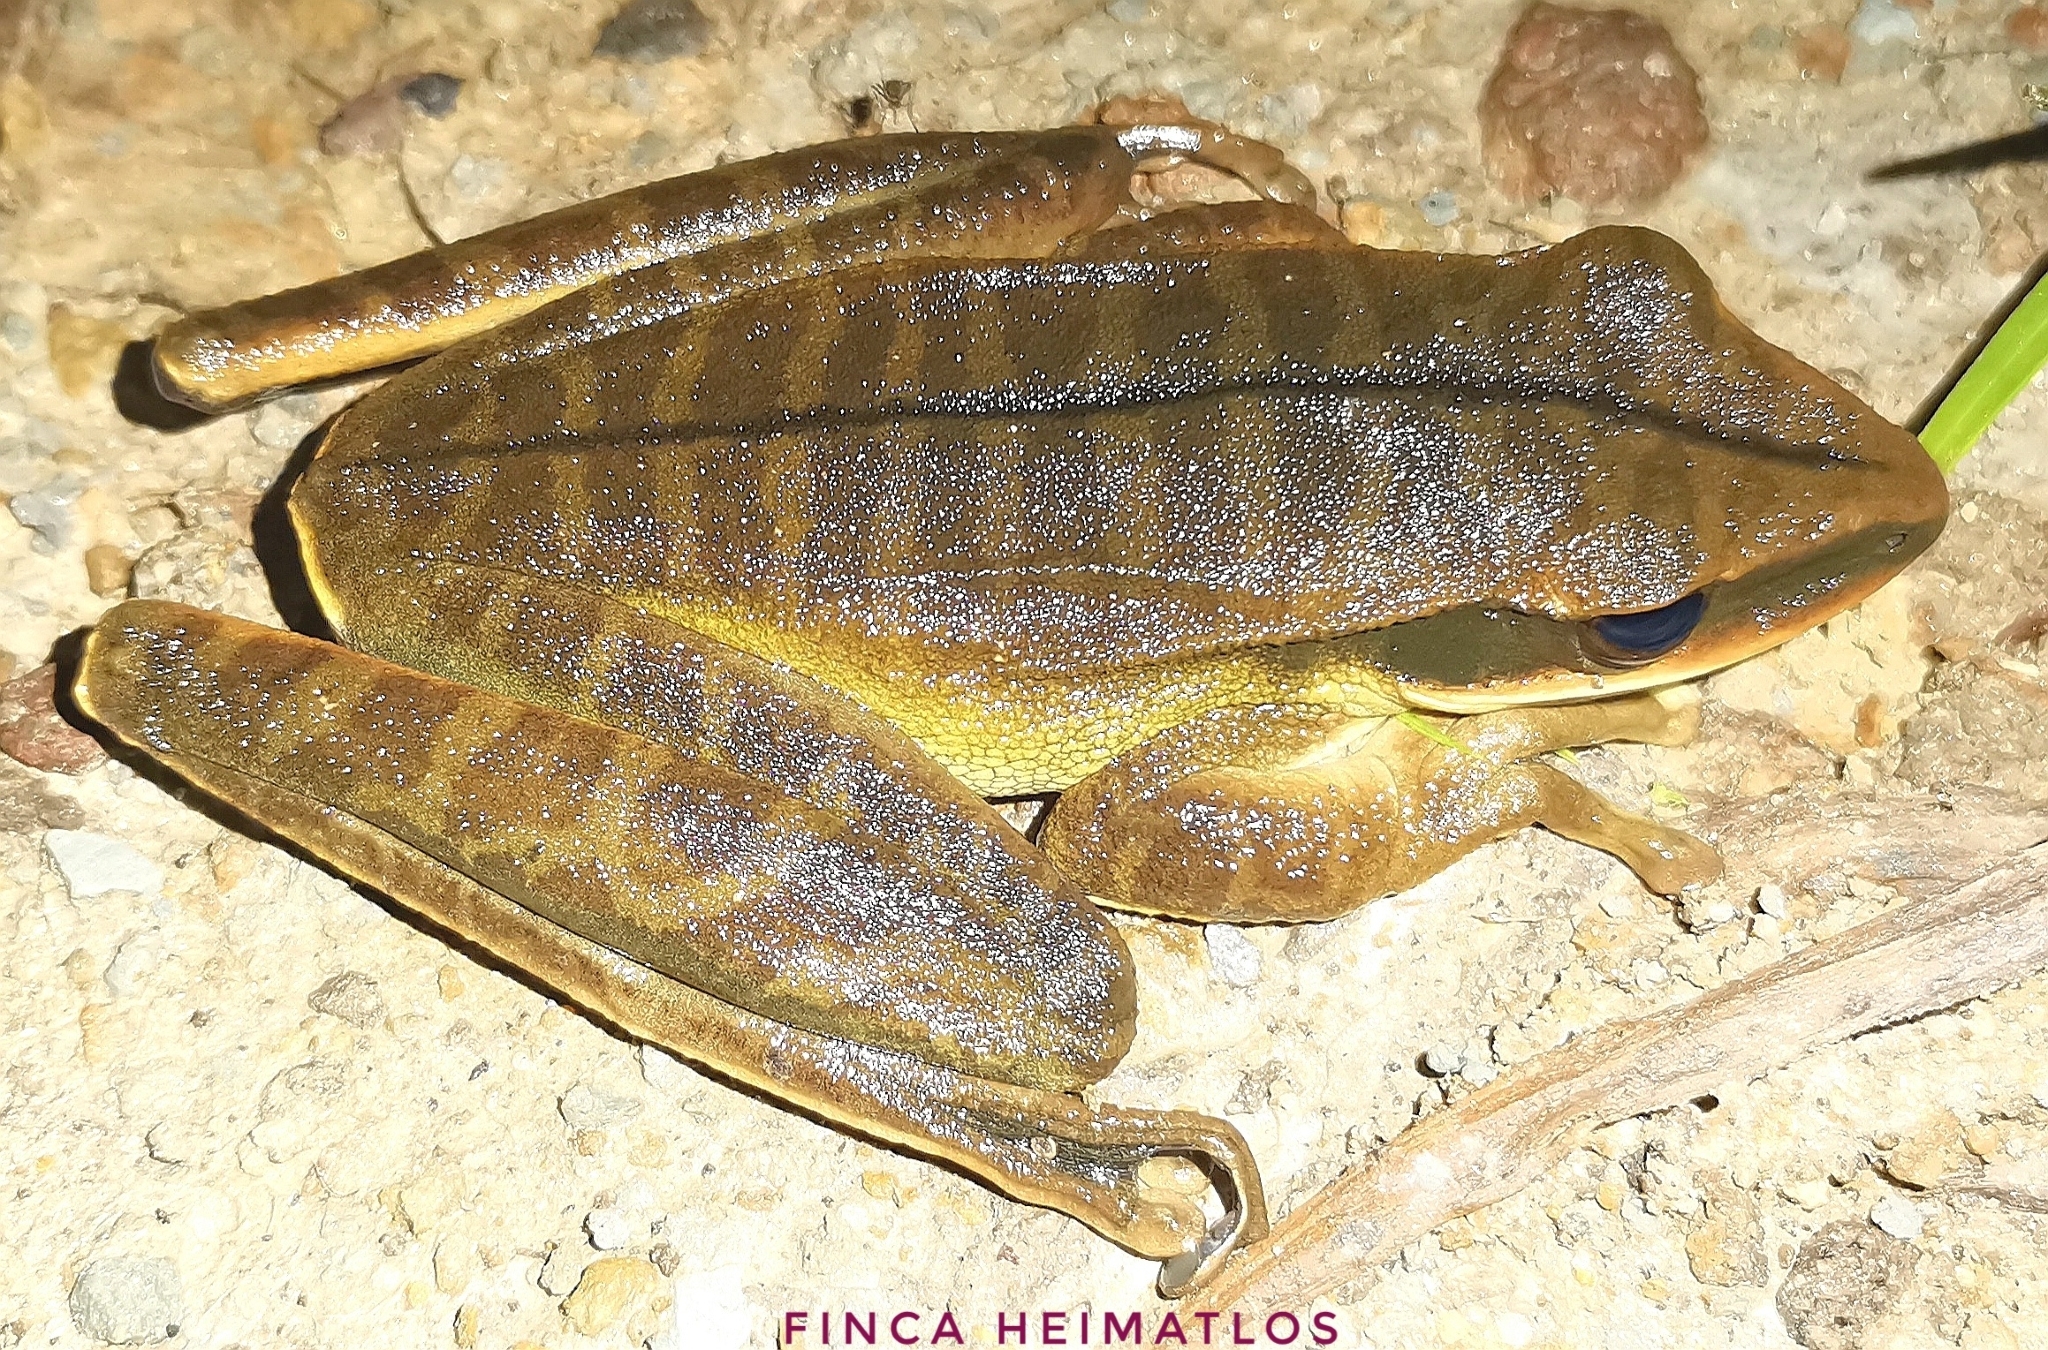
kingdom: Animalia
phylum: Chordata
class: Amphibia
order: Anura
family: Hylidae
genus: Boana
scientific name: Boana lanciformis
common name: Rana lanceolada commún
